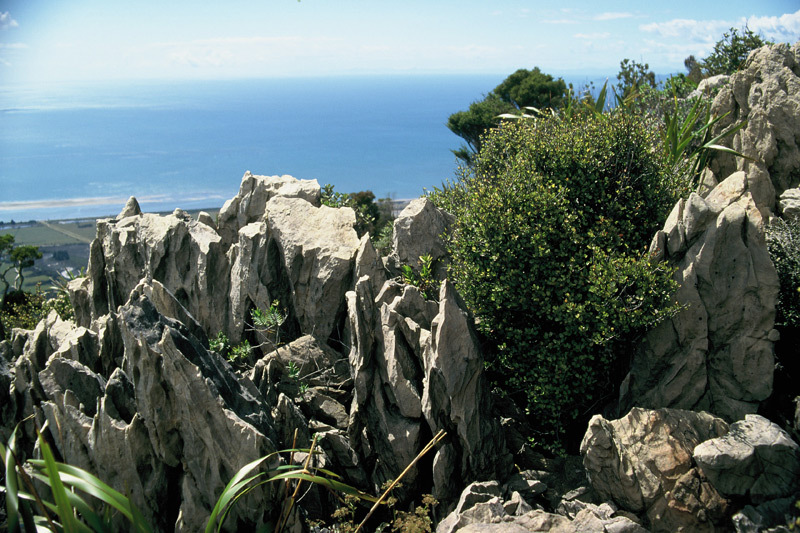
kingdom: Plantae
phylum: Tracheophyta
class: Magnoliopsida
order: Ericales
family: Primulaceae
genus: Myrsine
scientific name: Myrsine argentea
